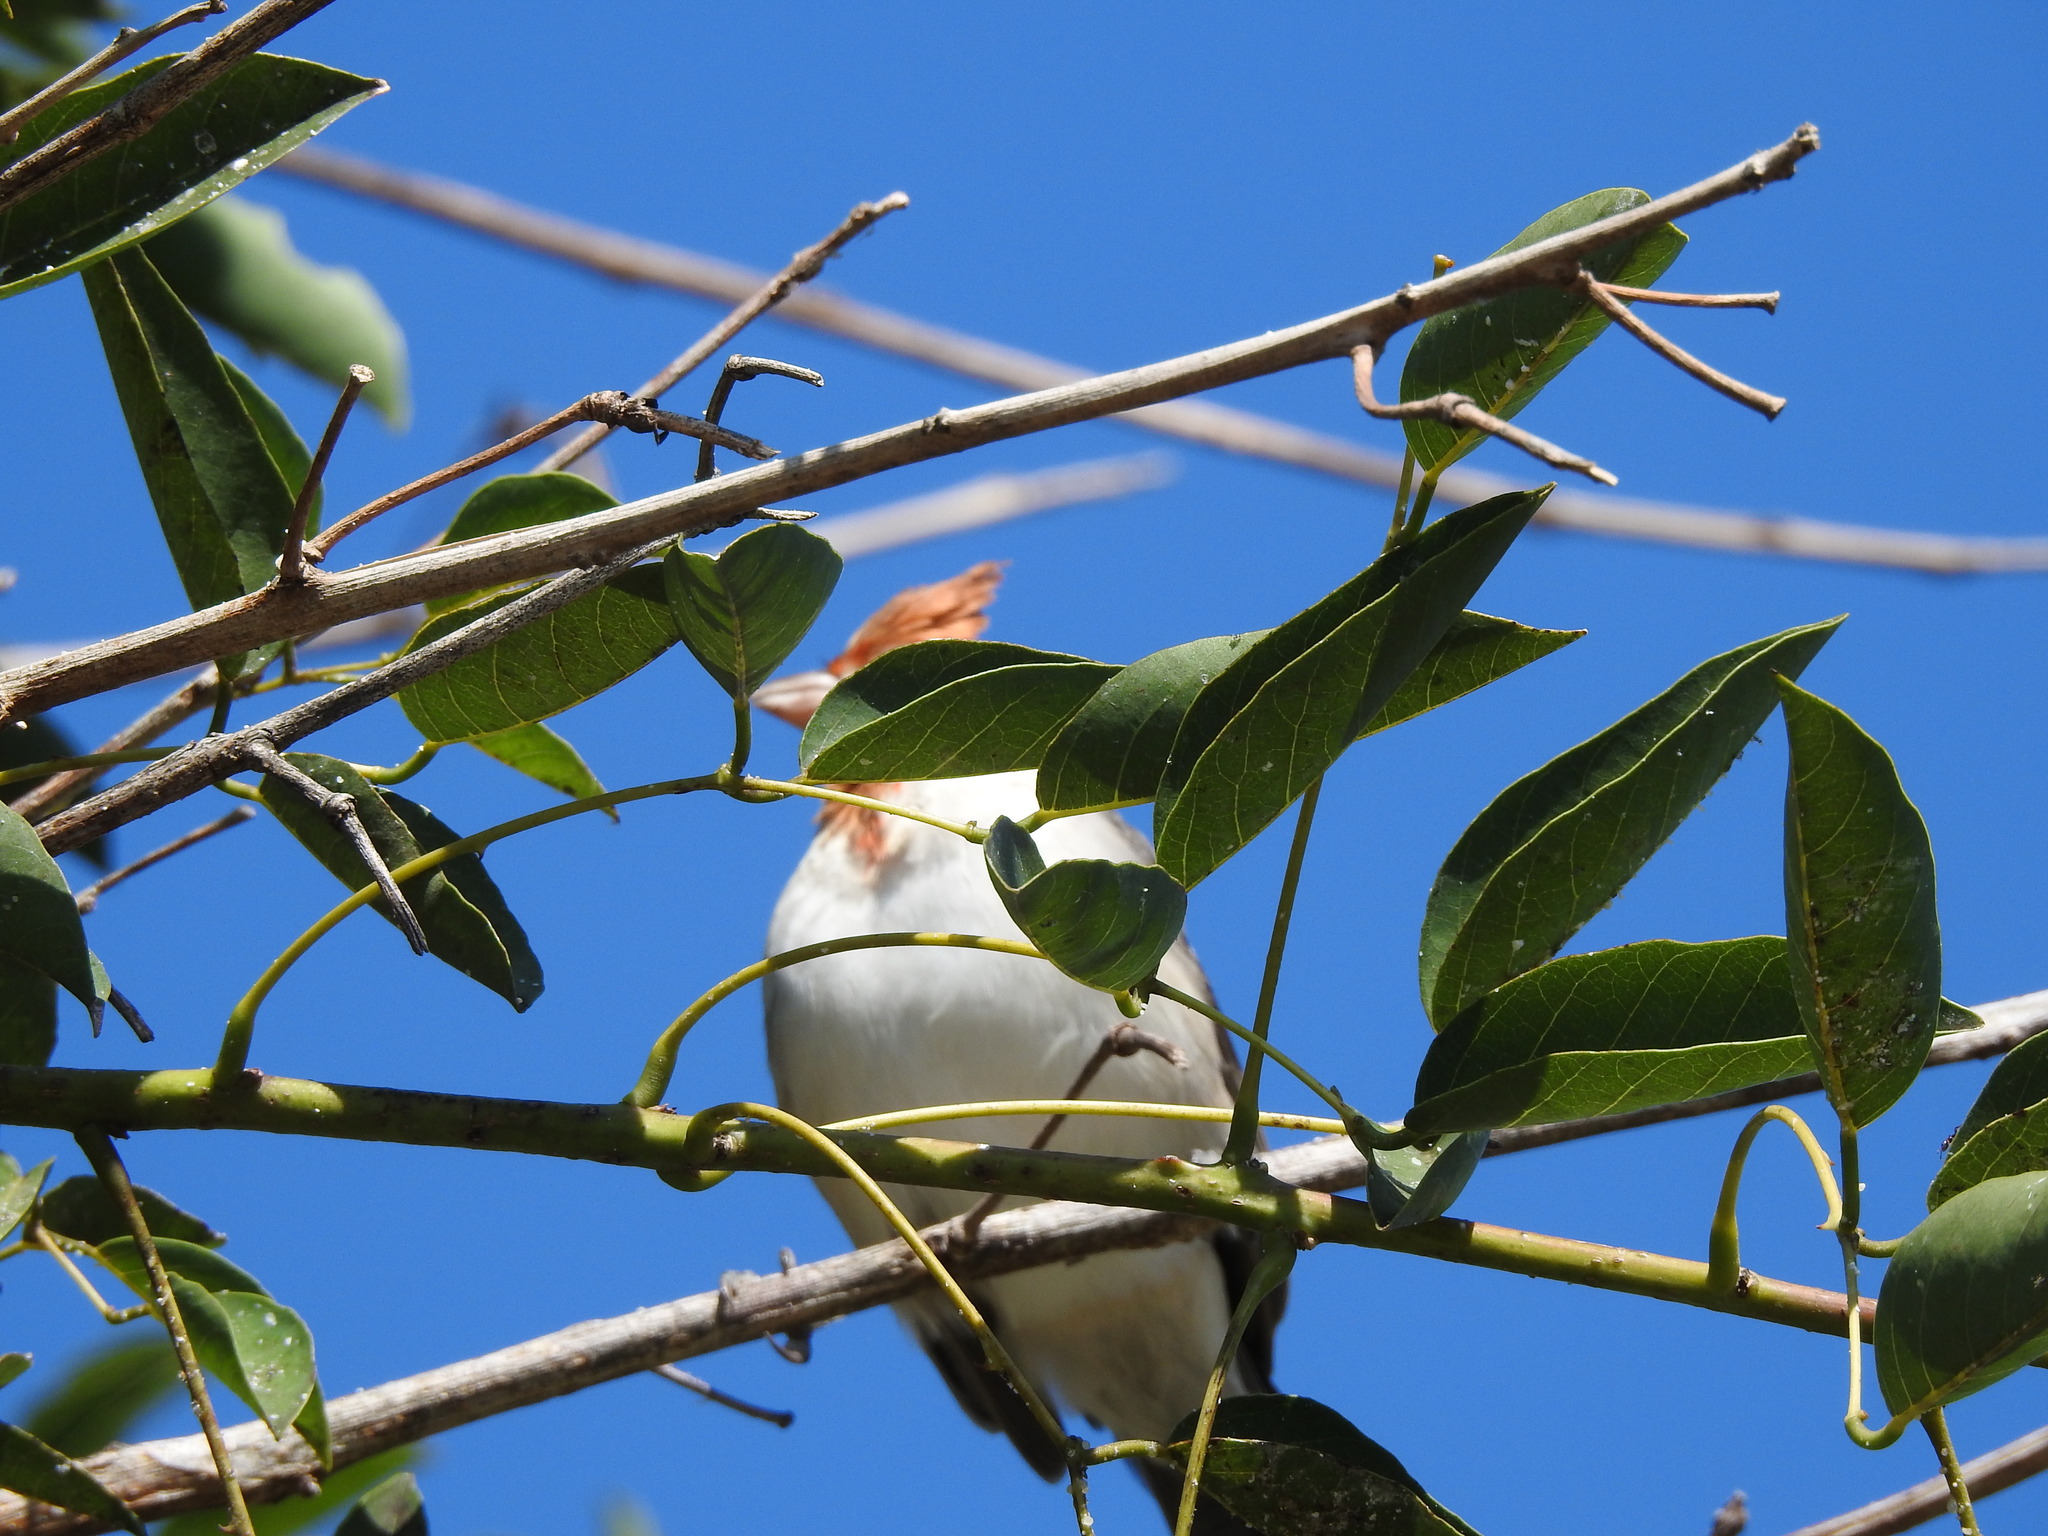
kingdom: Animalia
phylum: Chordata
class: Aves
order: Passeriformes
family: Thraupidae
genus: Paroaria
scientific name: Paroaria coronata
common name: Red-crested cardinal
